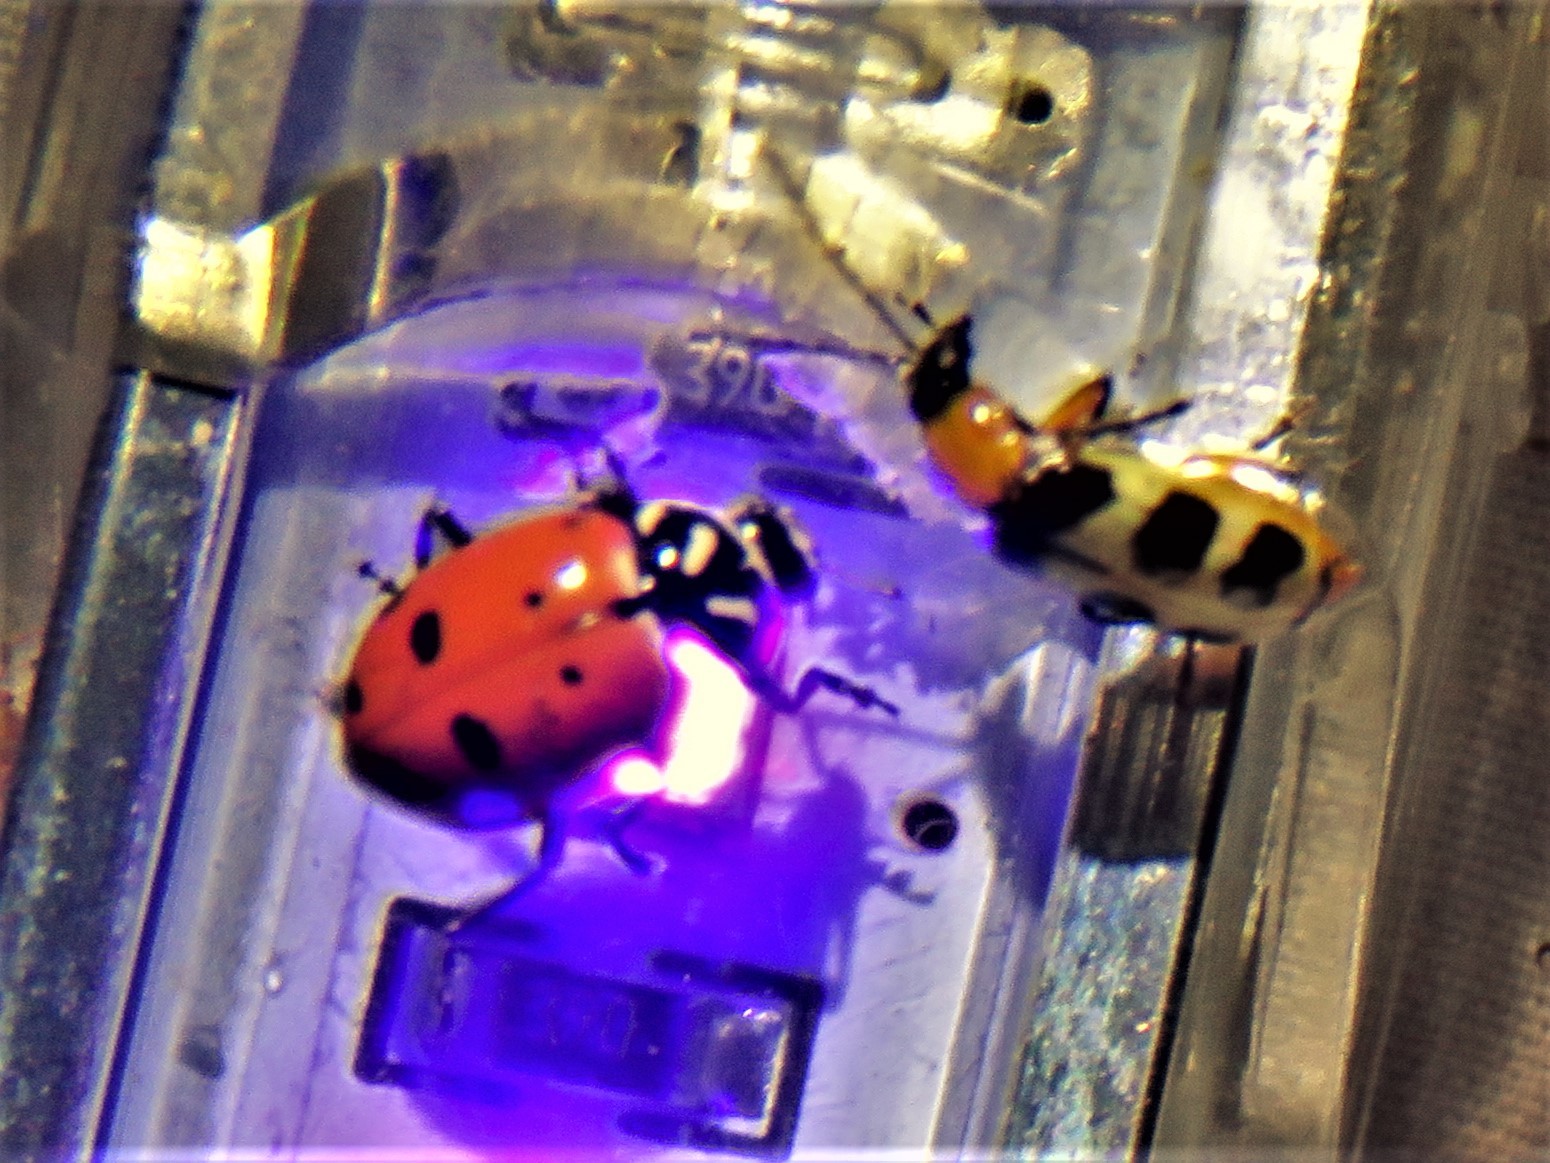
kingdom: Animalia
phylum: Arthropoda
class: Insecta
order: Coleoptera
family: Coccinellidae
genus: Hippodamia
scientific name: Hippodamia convergens
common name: Convergent lady beetle
